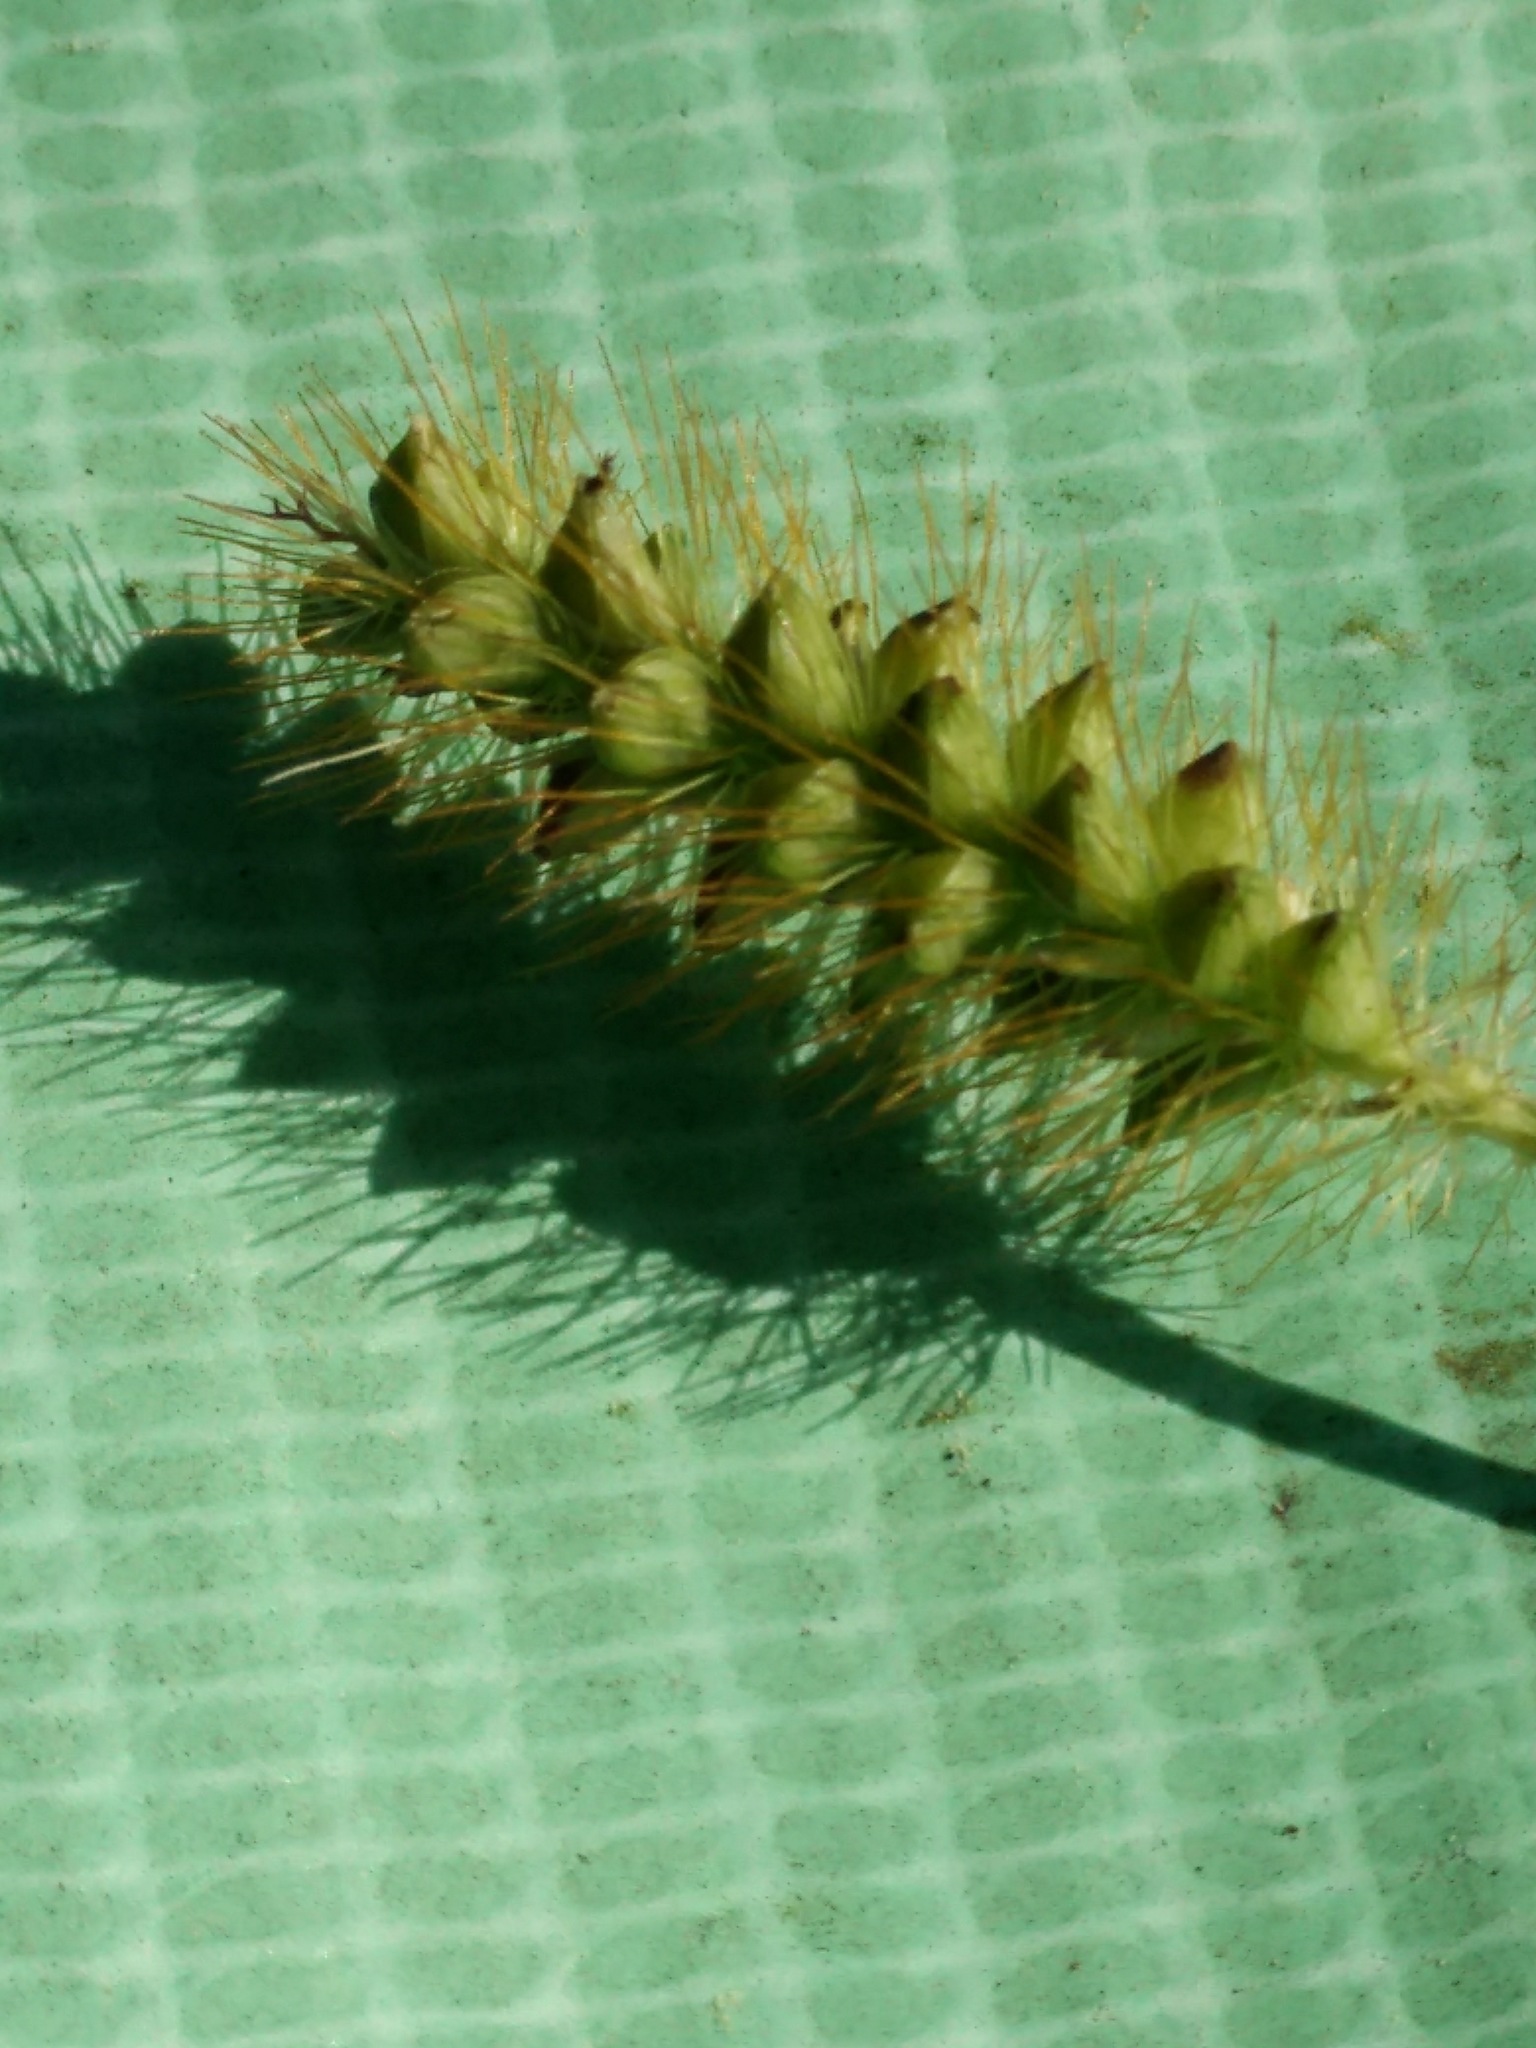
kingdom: Plantae
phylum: Tracheophyta
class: Liliopsida
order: Poales
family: Poaceae
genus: Setaria
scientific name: Setaria pumila
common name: Yellow bristle-grass
